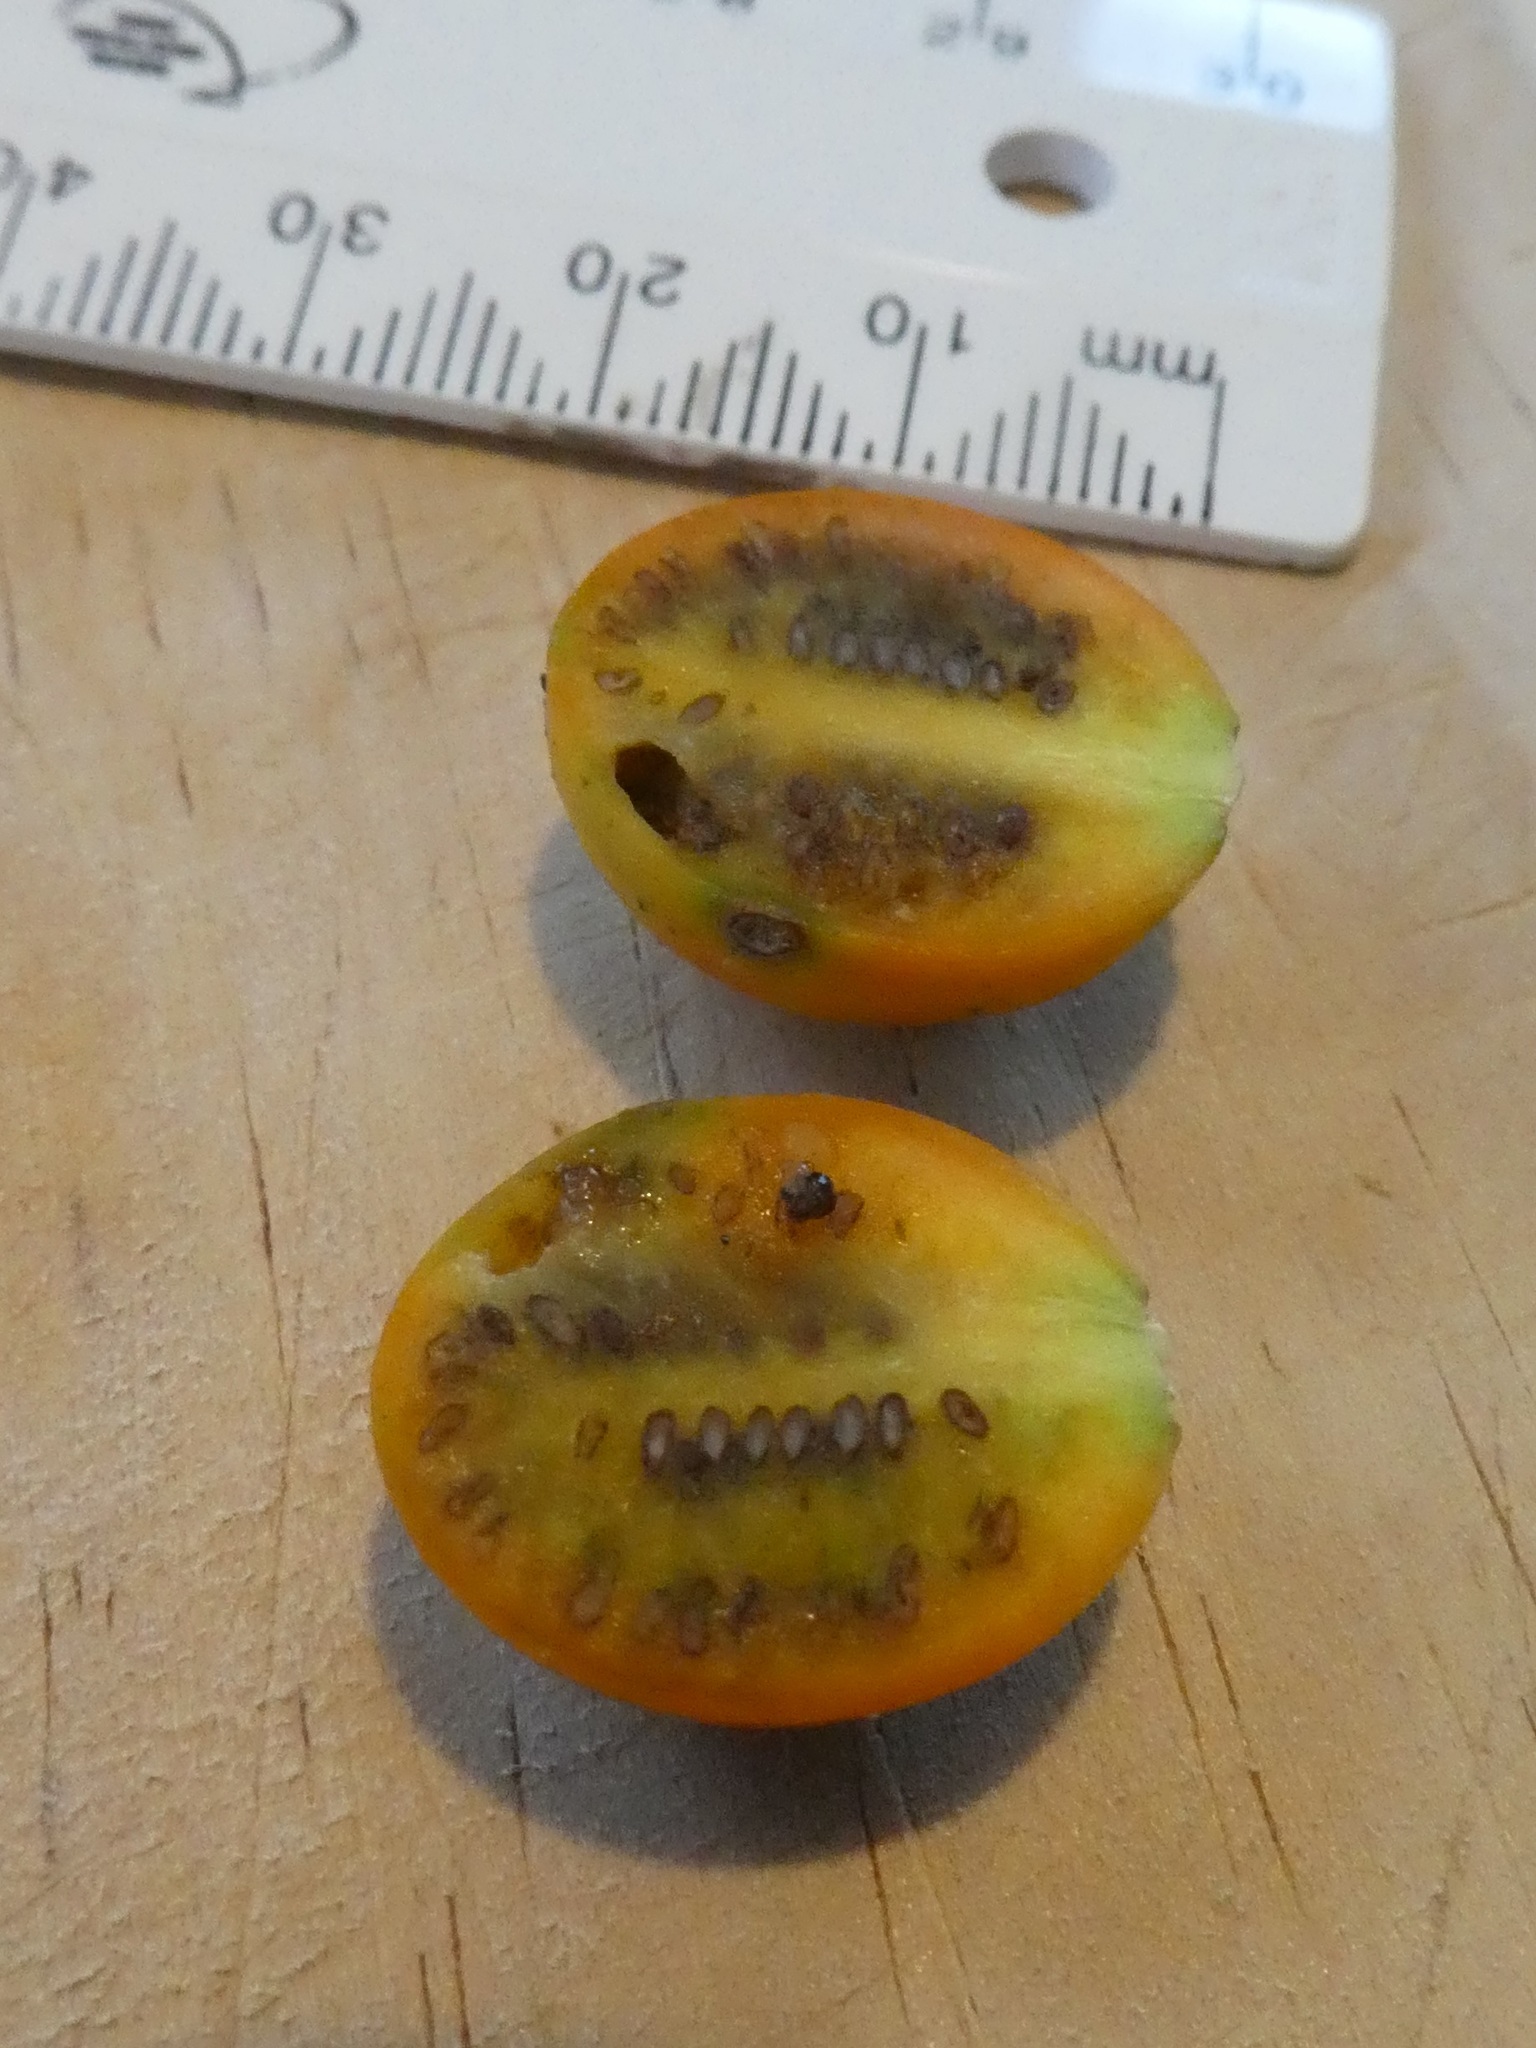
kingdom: Plantae
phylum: Tracheophyta
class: Magnoliopsida
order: Solanales
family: Solanaceae
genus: Solanum
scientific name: Solanum aviculare
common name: New zealand nightshade
